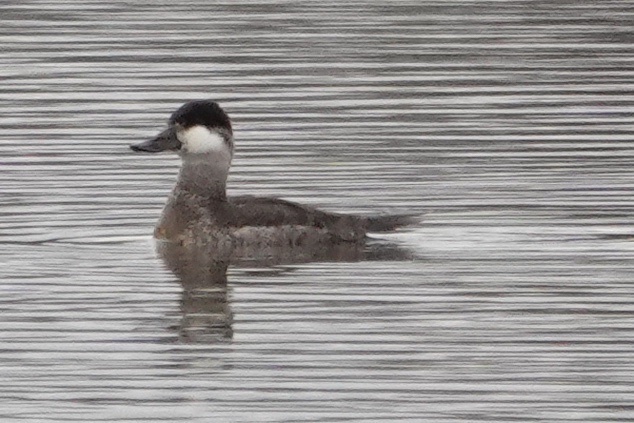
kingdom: Animalia
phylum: Chordata
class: Aves
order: Anseriformes
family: Anatidae
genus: Oxyura
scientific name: Oxyura jamaicensis
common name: Ruddy duck
